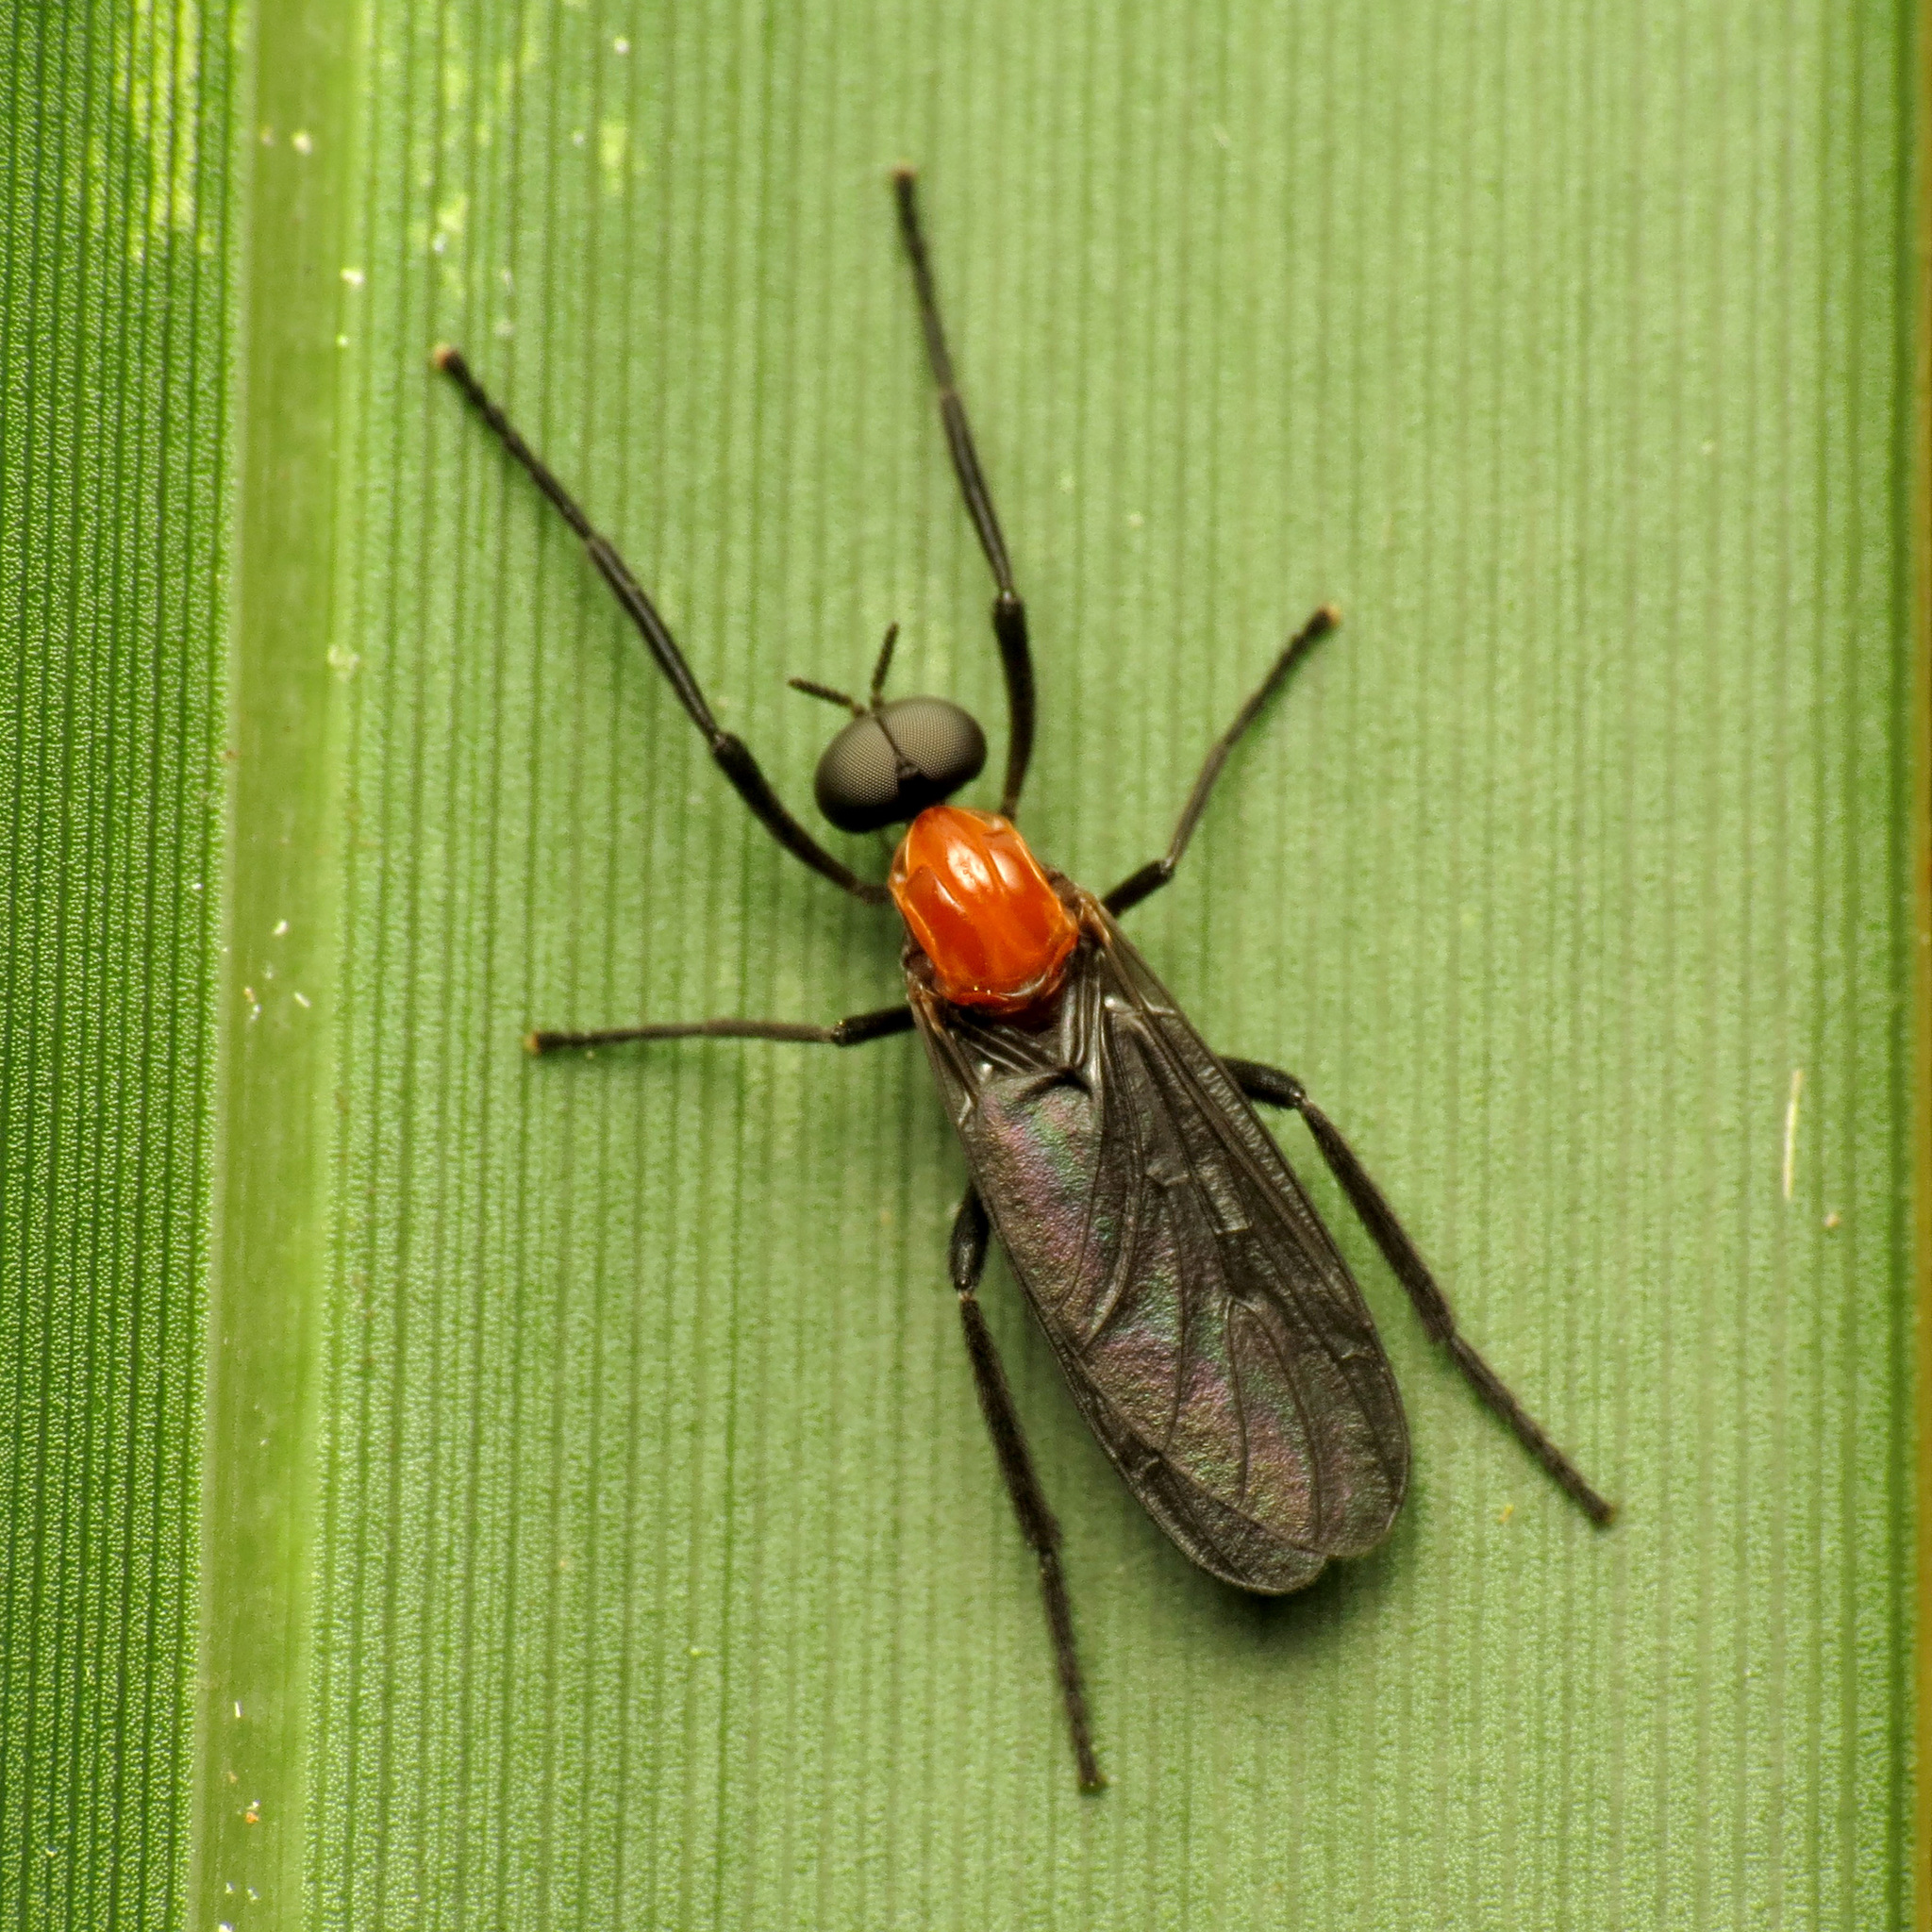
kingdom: Animalia
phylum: Arthropoda
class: Insecta
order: Diptera
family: Bibionidae
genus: Plecia
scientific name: Plecia nearctica
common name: March fly
